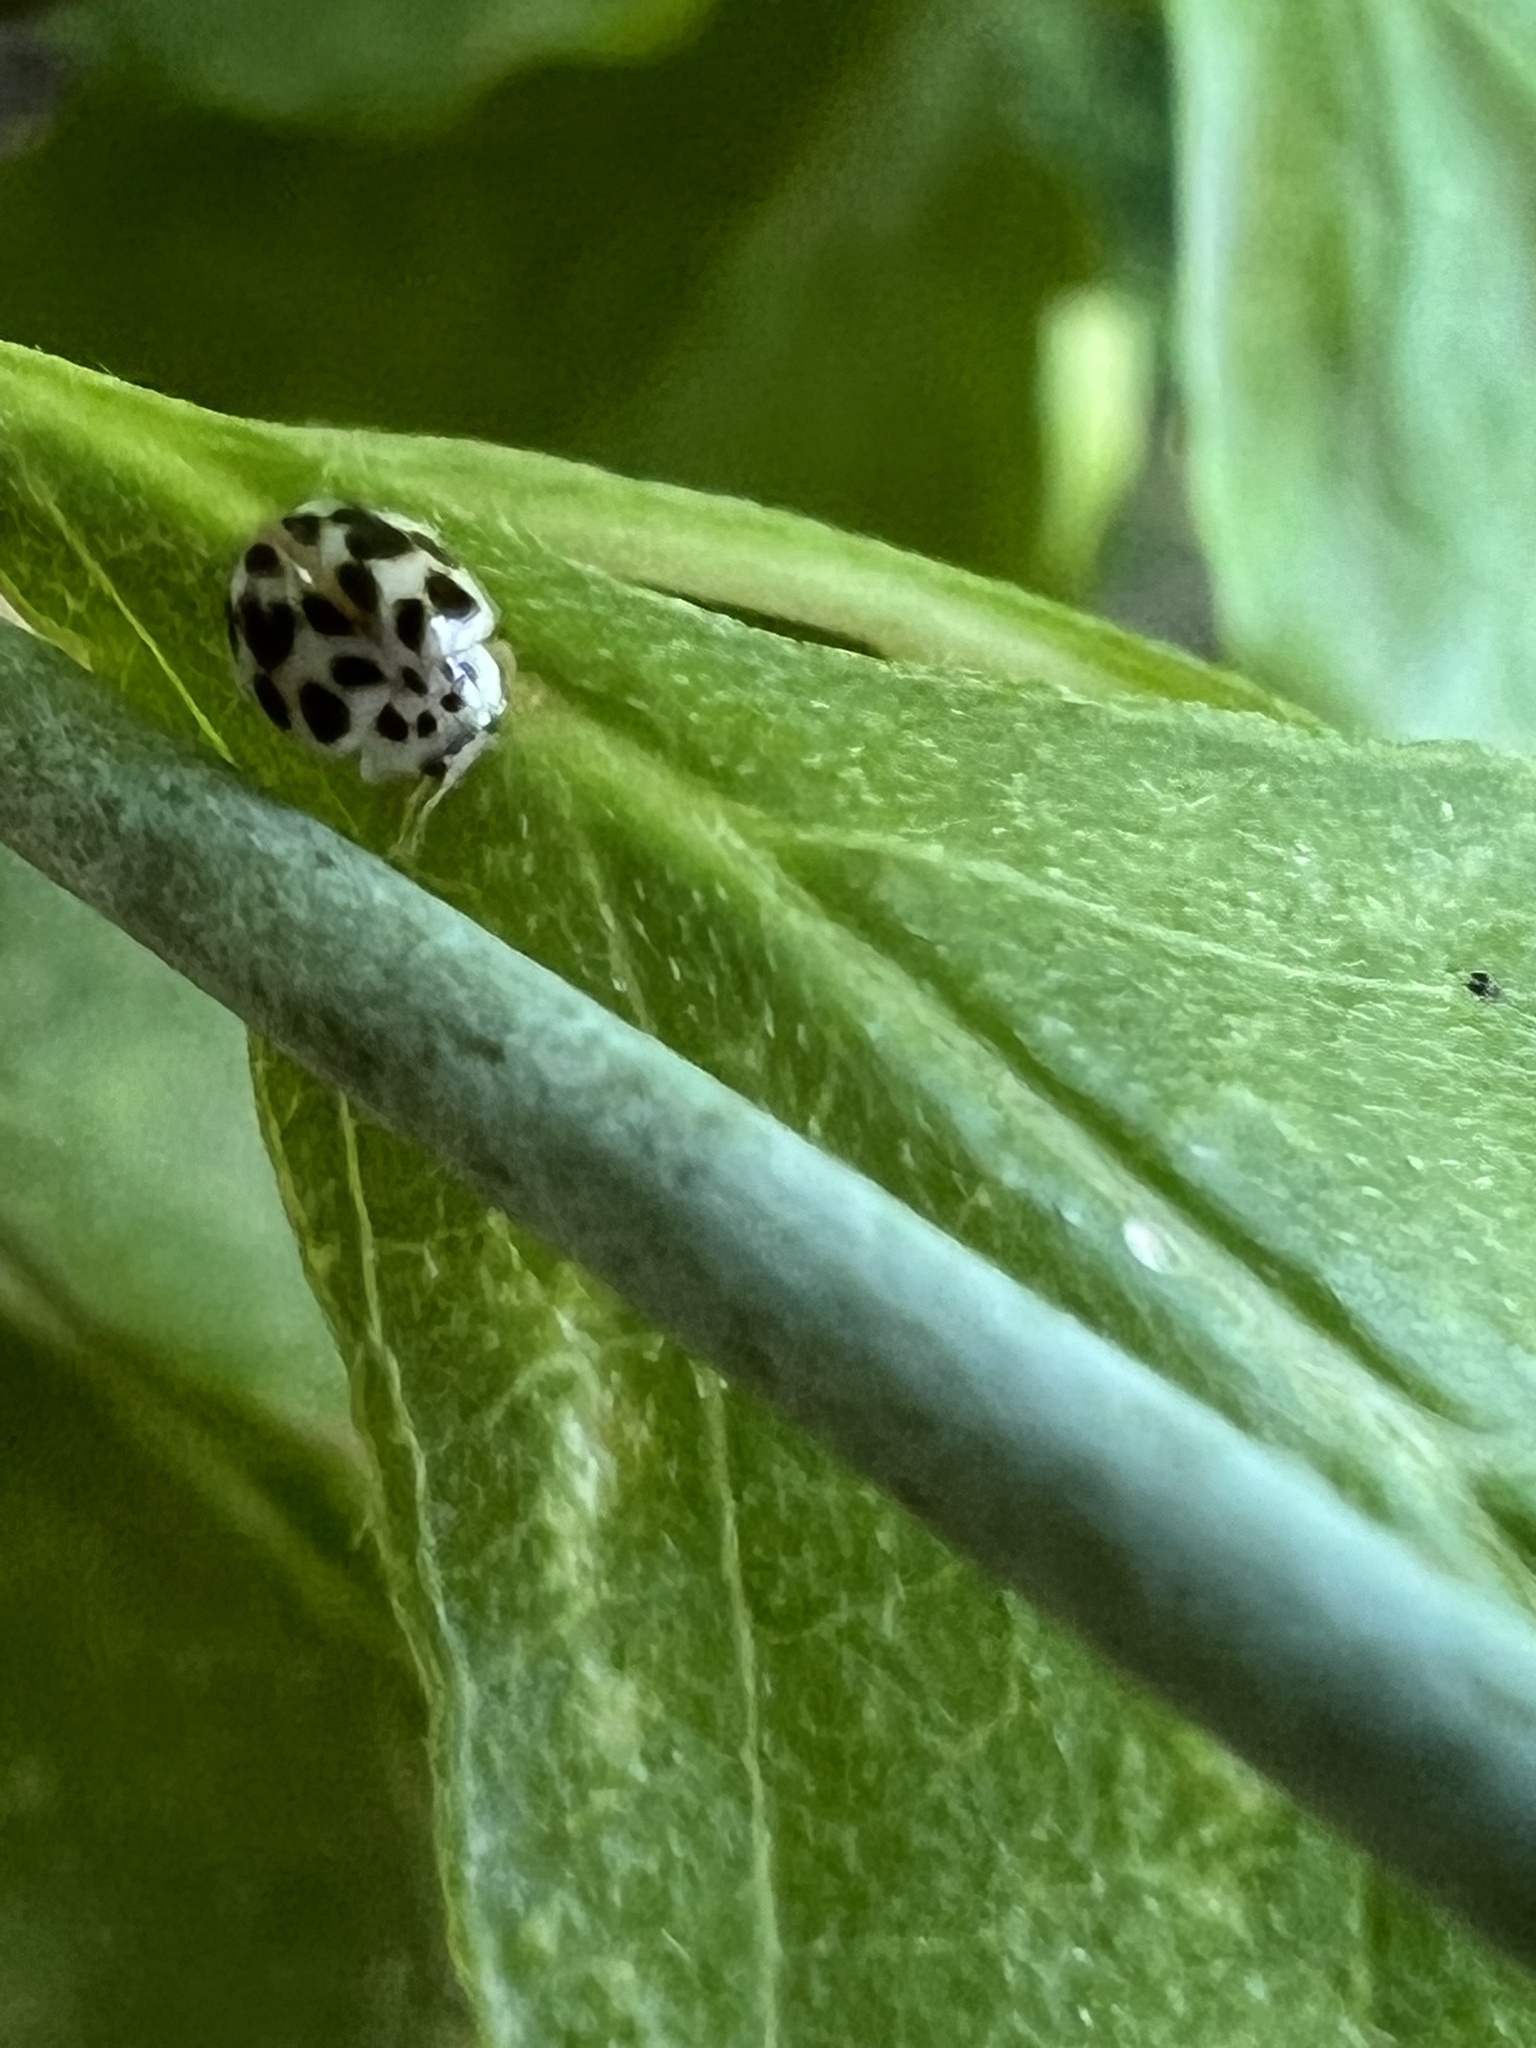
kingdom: Animalia
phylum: Arthropoda
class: Insecta
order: Coleoptera
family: Coccinellidae
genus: Psyllobora
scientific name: Psyllobora vigintimaculata
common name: Ladybird beetle
